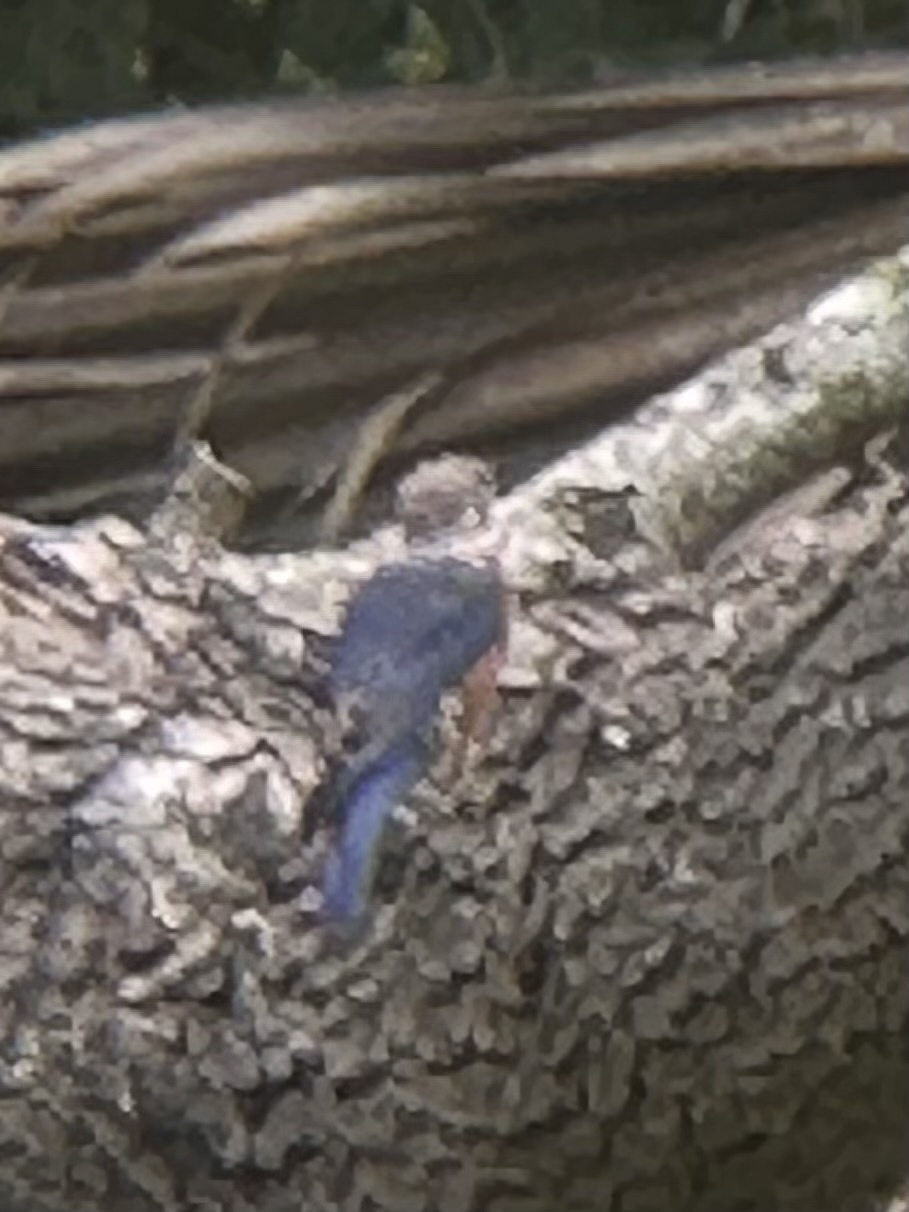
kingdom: Animalia
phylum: Chordata
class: Aves
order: Passeriformes
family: Turdidae
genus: Sialia
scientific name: Sialia sialis
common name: Eastern bluebird
